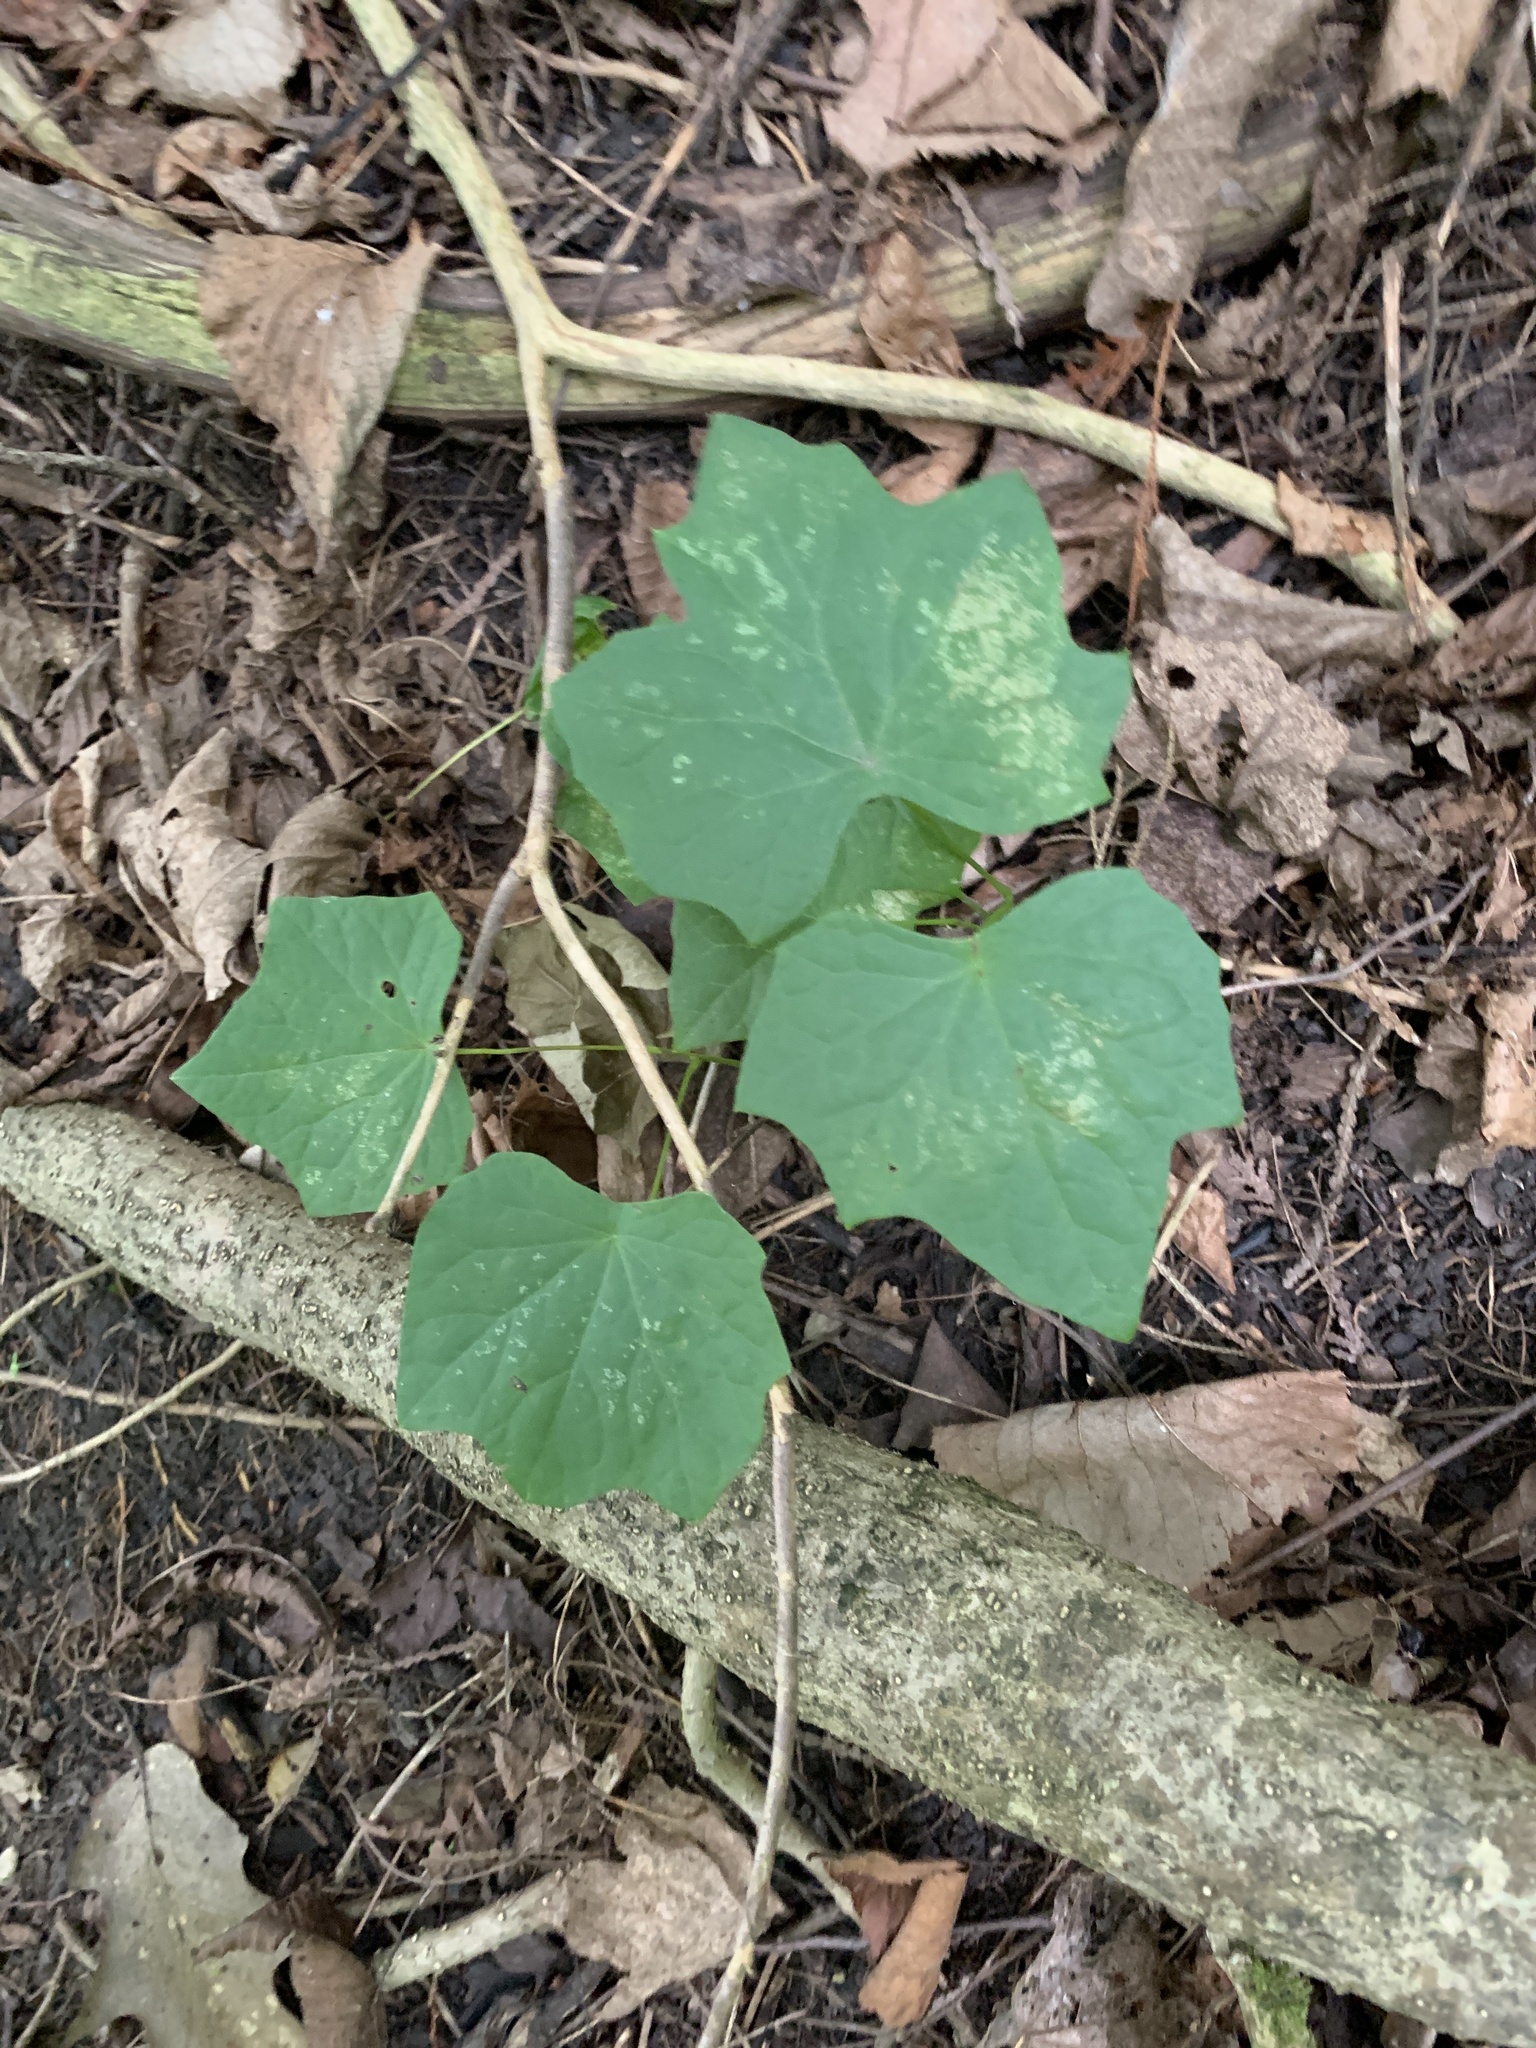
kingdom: Plantae
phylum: Tracheophyta
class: Magnoliopsida
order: Ranunculales
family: Menispermaceae
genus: Menispermum
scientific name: Menispermum canadense
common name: Moonseed
